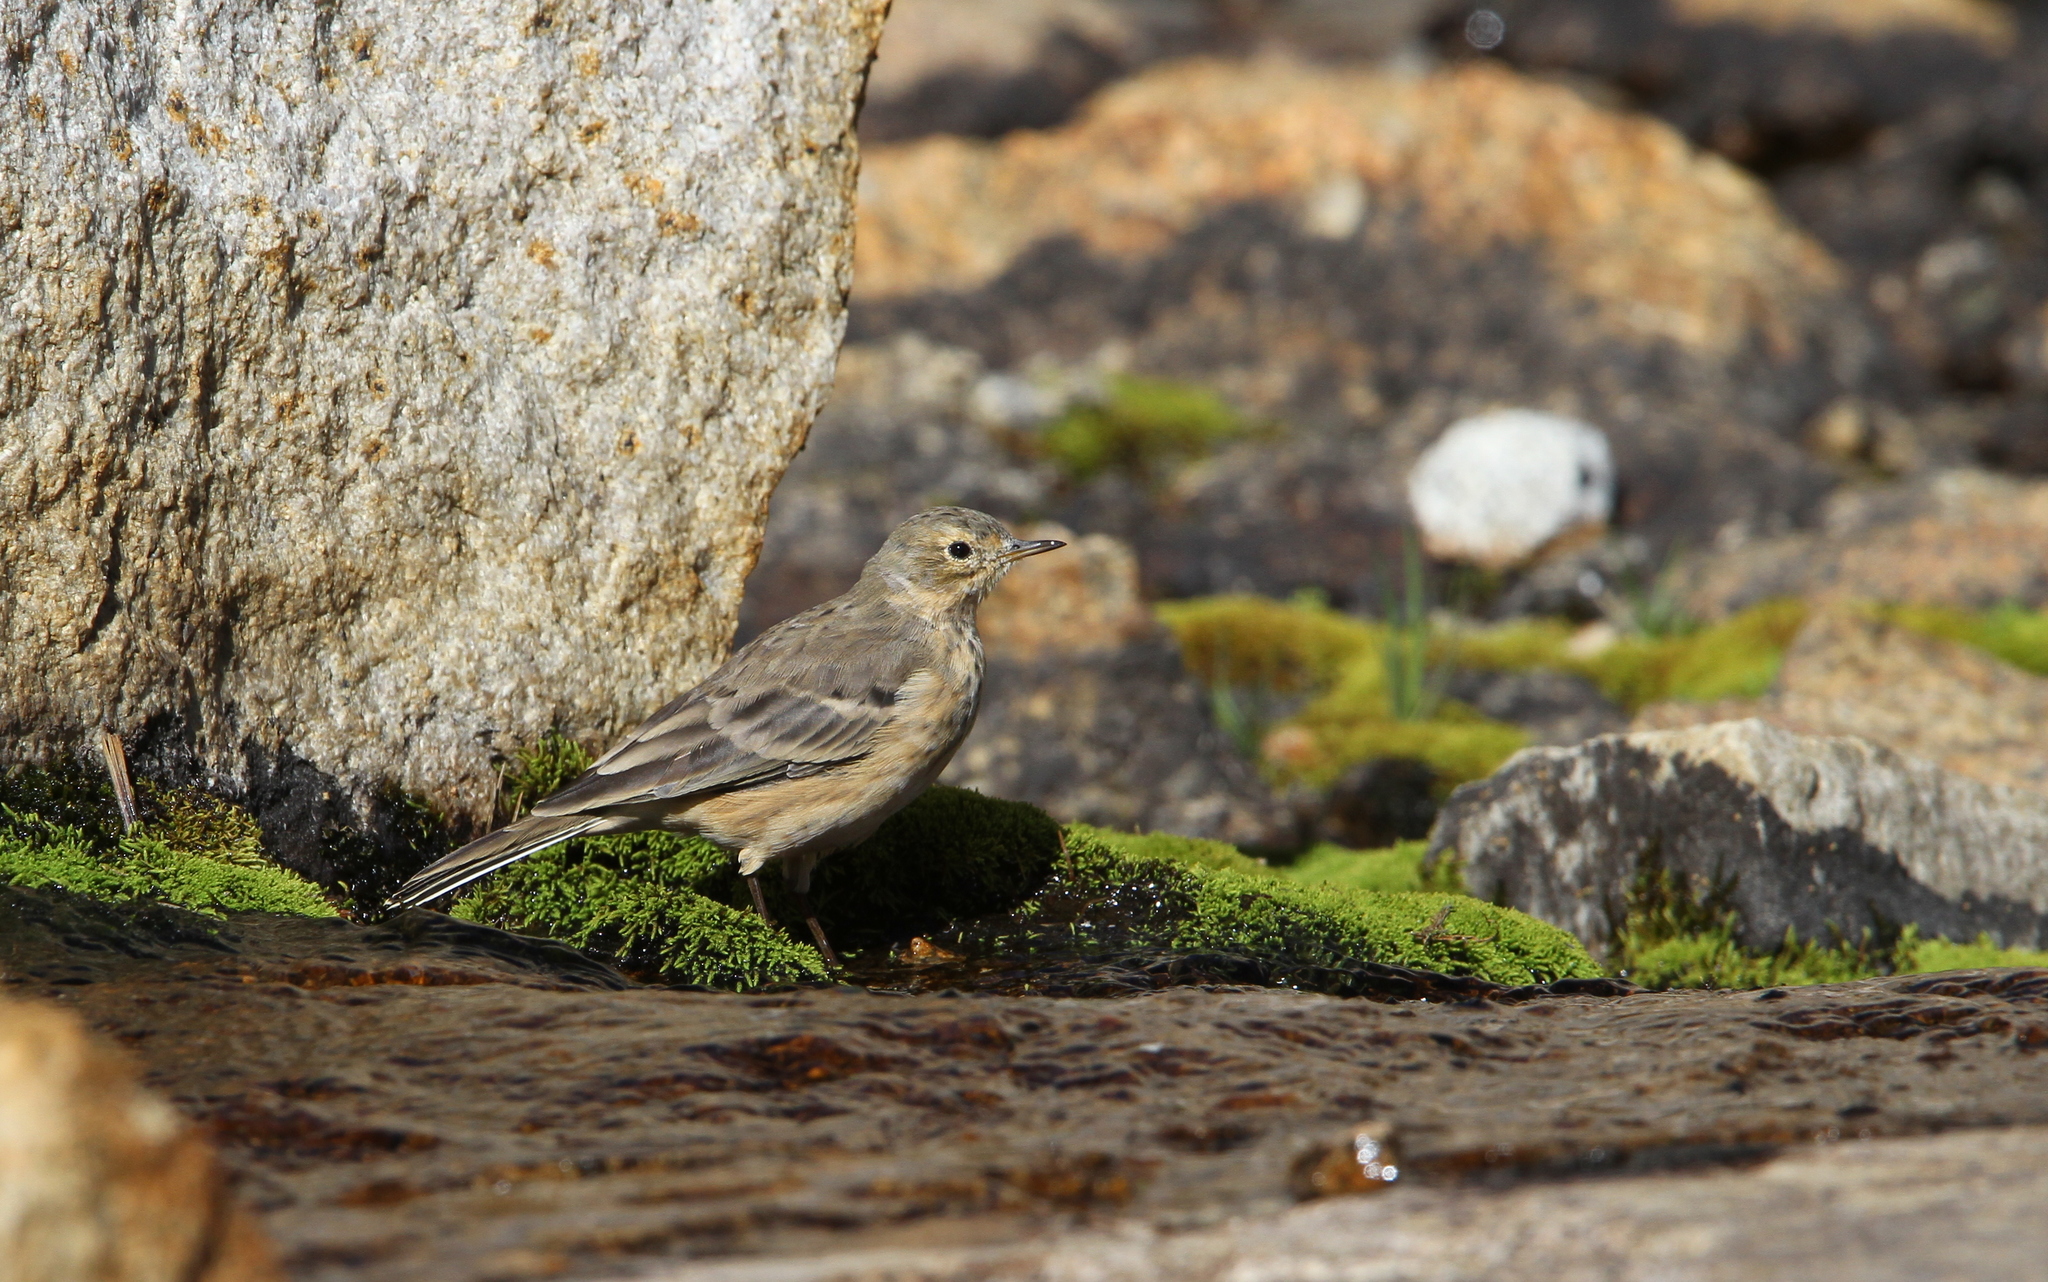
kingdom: Animalia
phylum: Chordata
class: Aves
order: Passeriformes
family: Motacillidae
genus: Anthus
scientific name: Anthus rubescens
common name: Buff-bellied pipit
